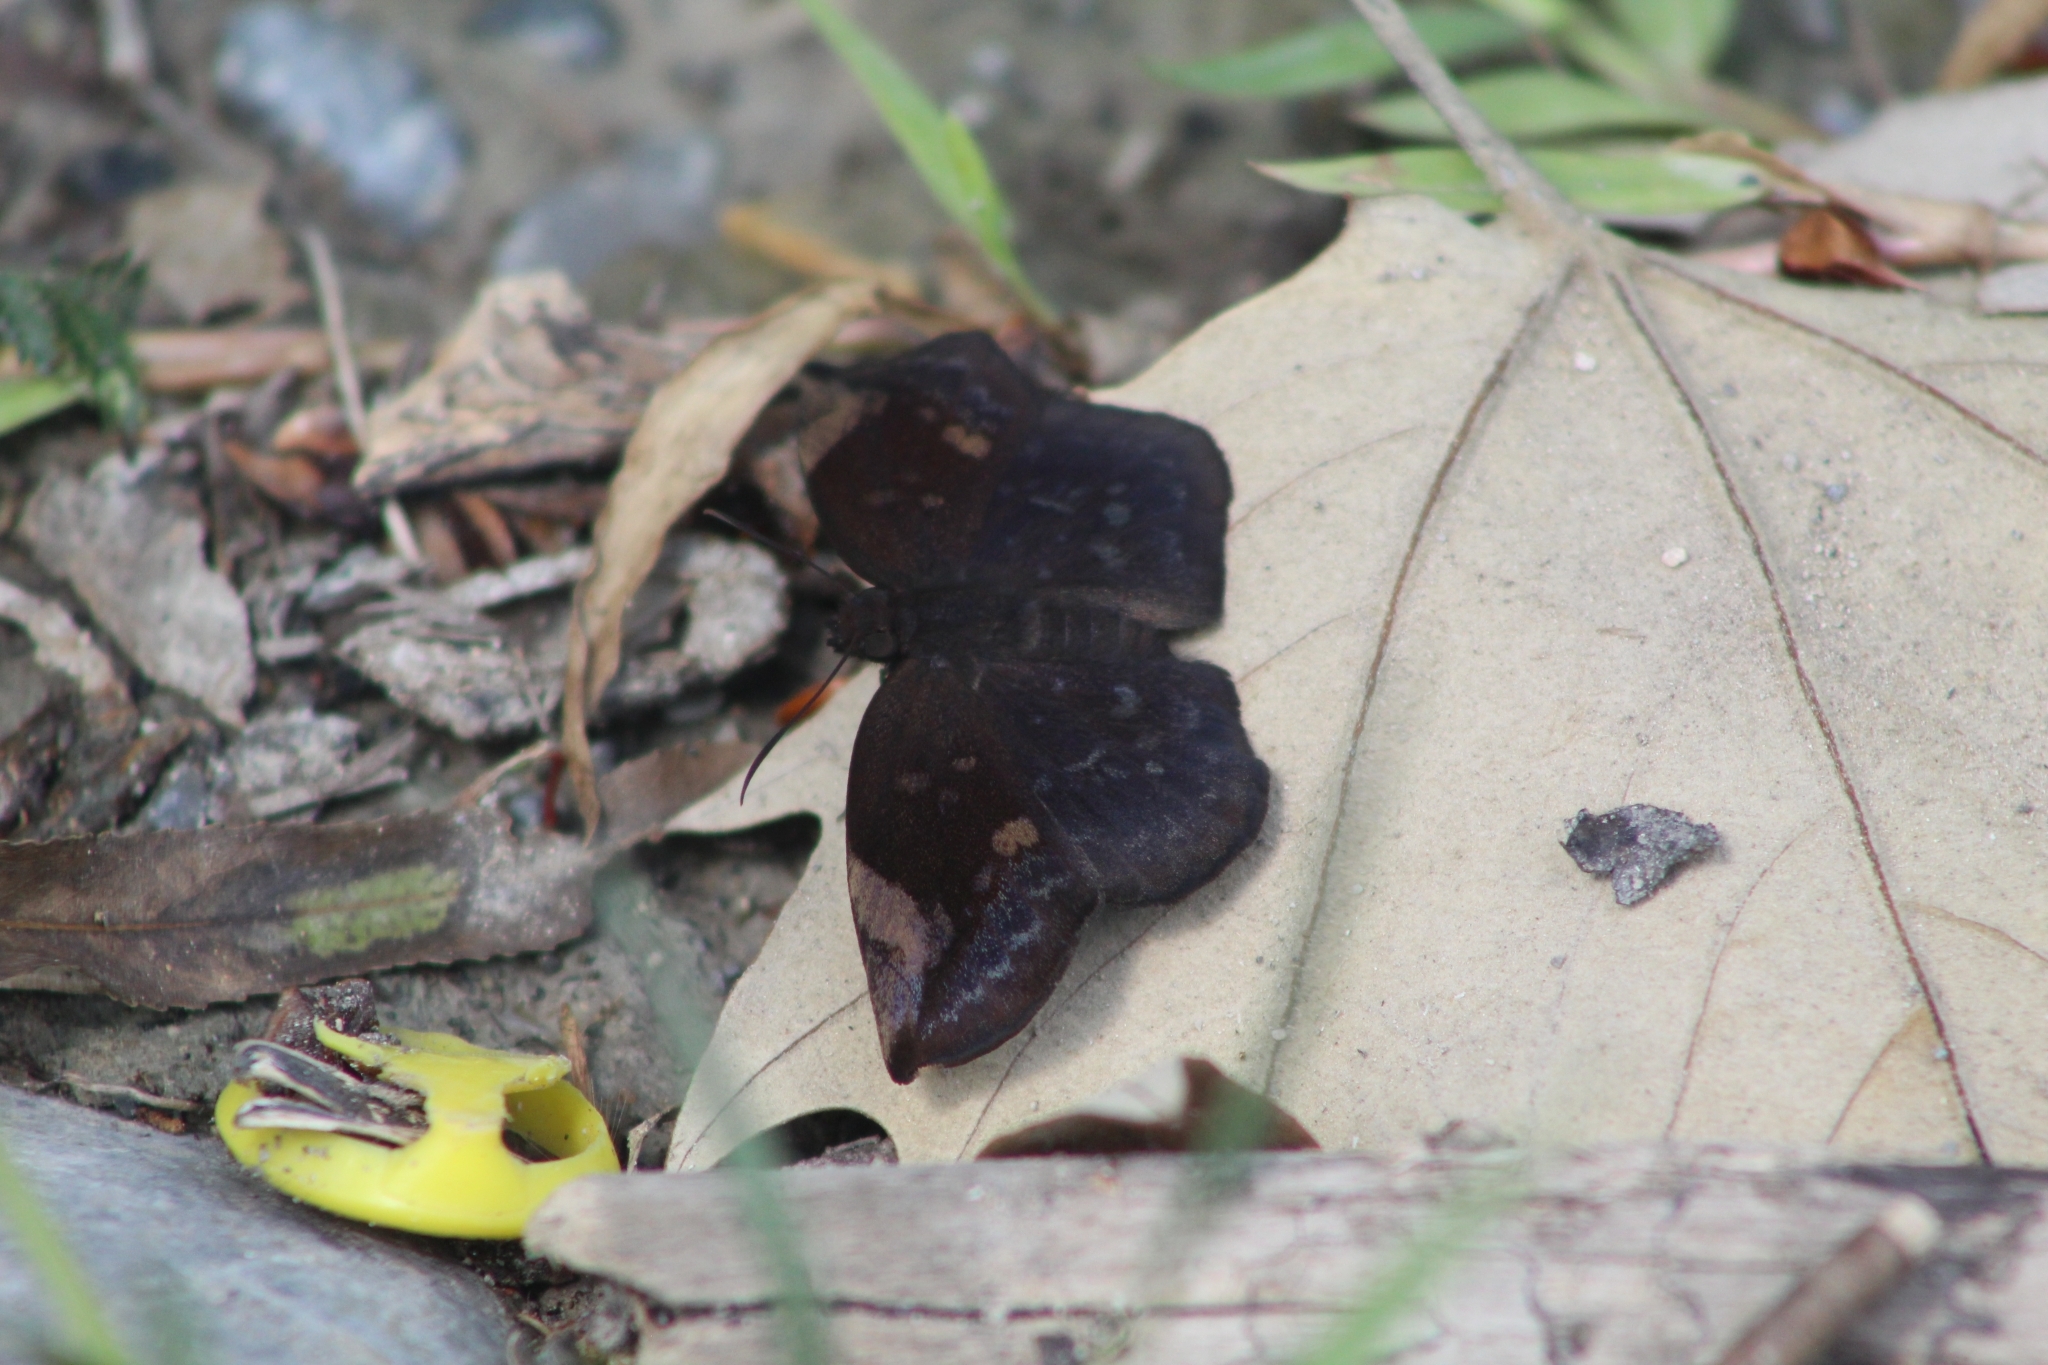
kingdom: Animalia
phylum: Arthropoda
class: Insecta
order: Lepidoptera
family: Hesperiidae
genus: Achlyodes
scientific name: Achlyodes thraso
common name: Sickle-winged skipper
